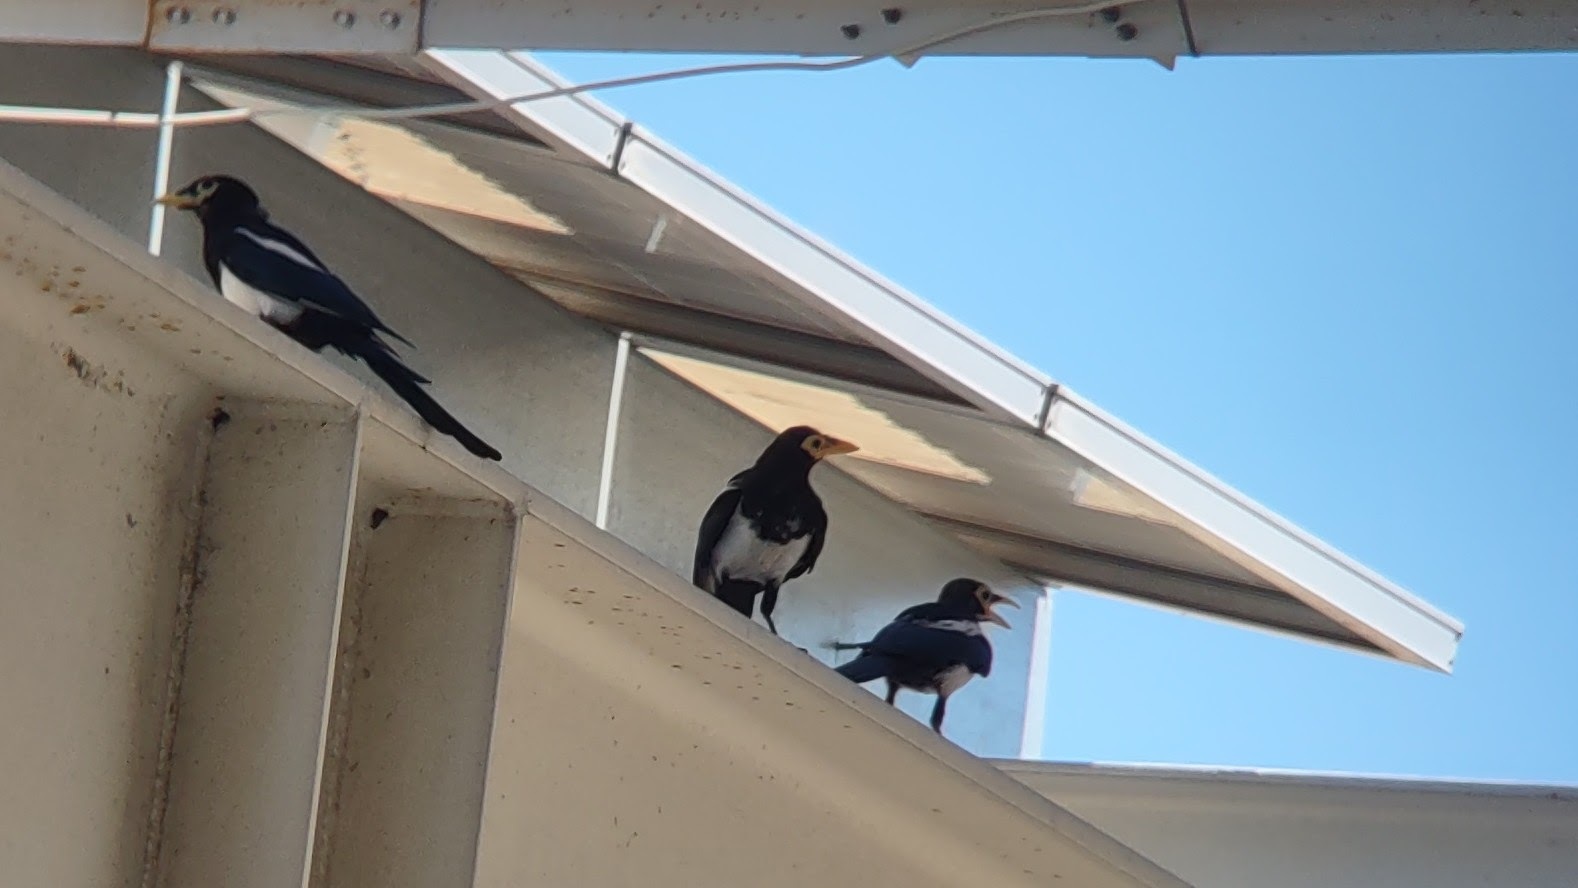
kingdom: Animalia
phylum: Chordata
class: Aves
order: Passeriformes
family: Corvidae
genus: Pica
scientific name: Pica nuttalli
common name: Yellow-billed magpie
